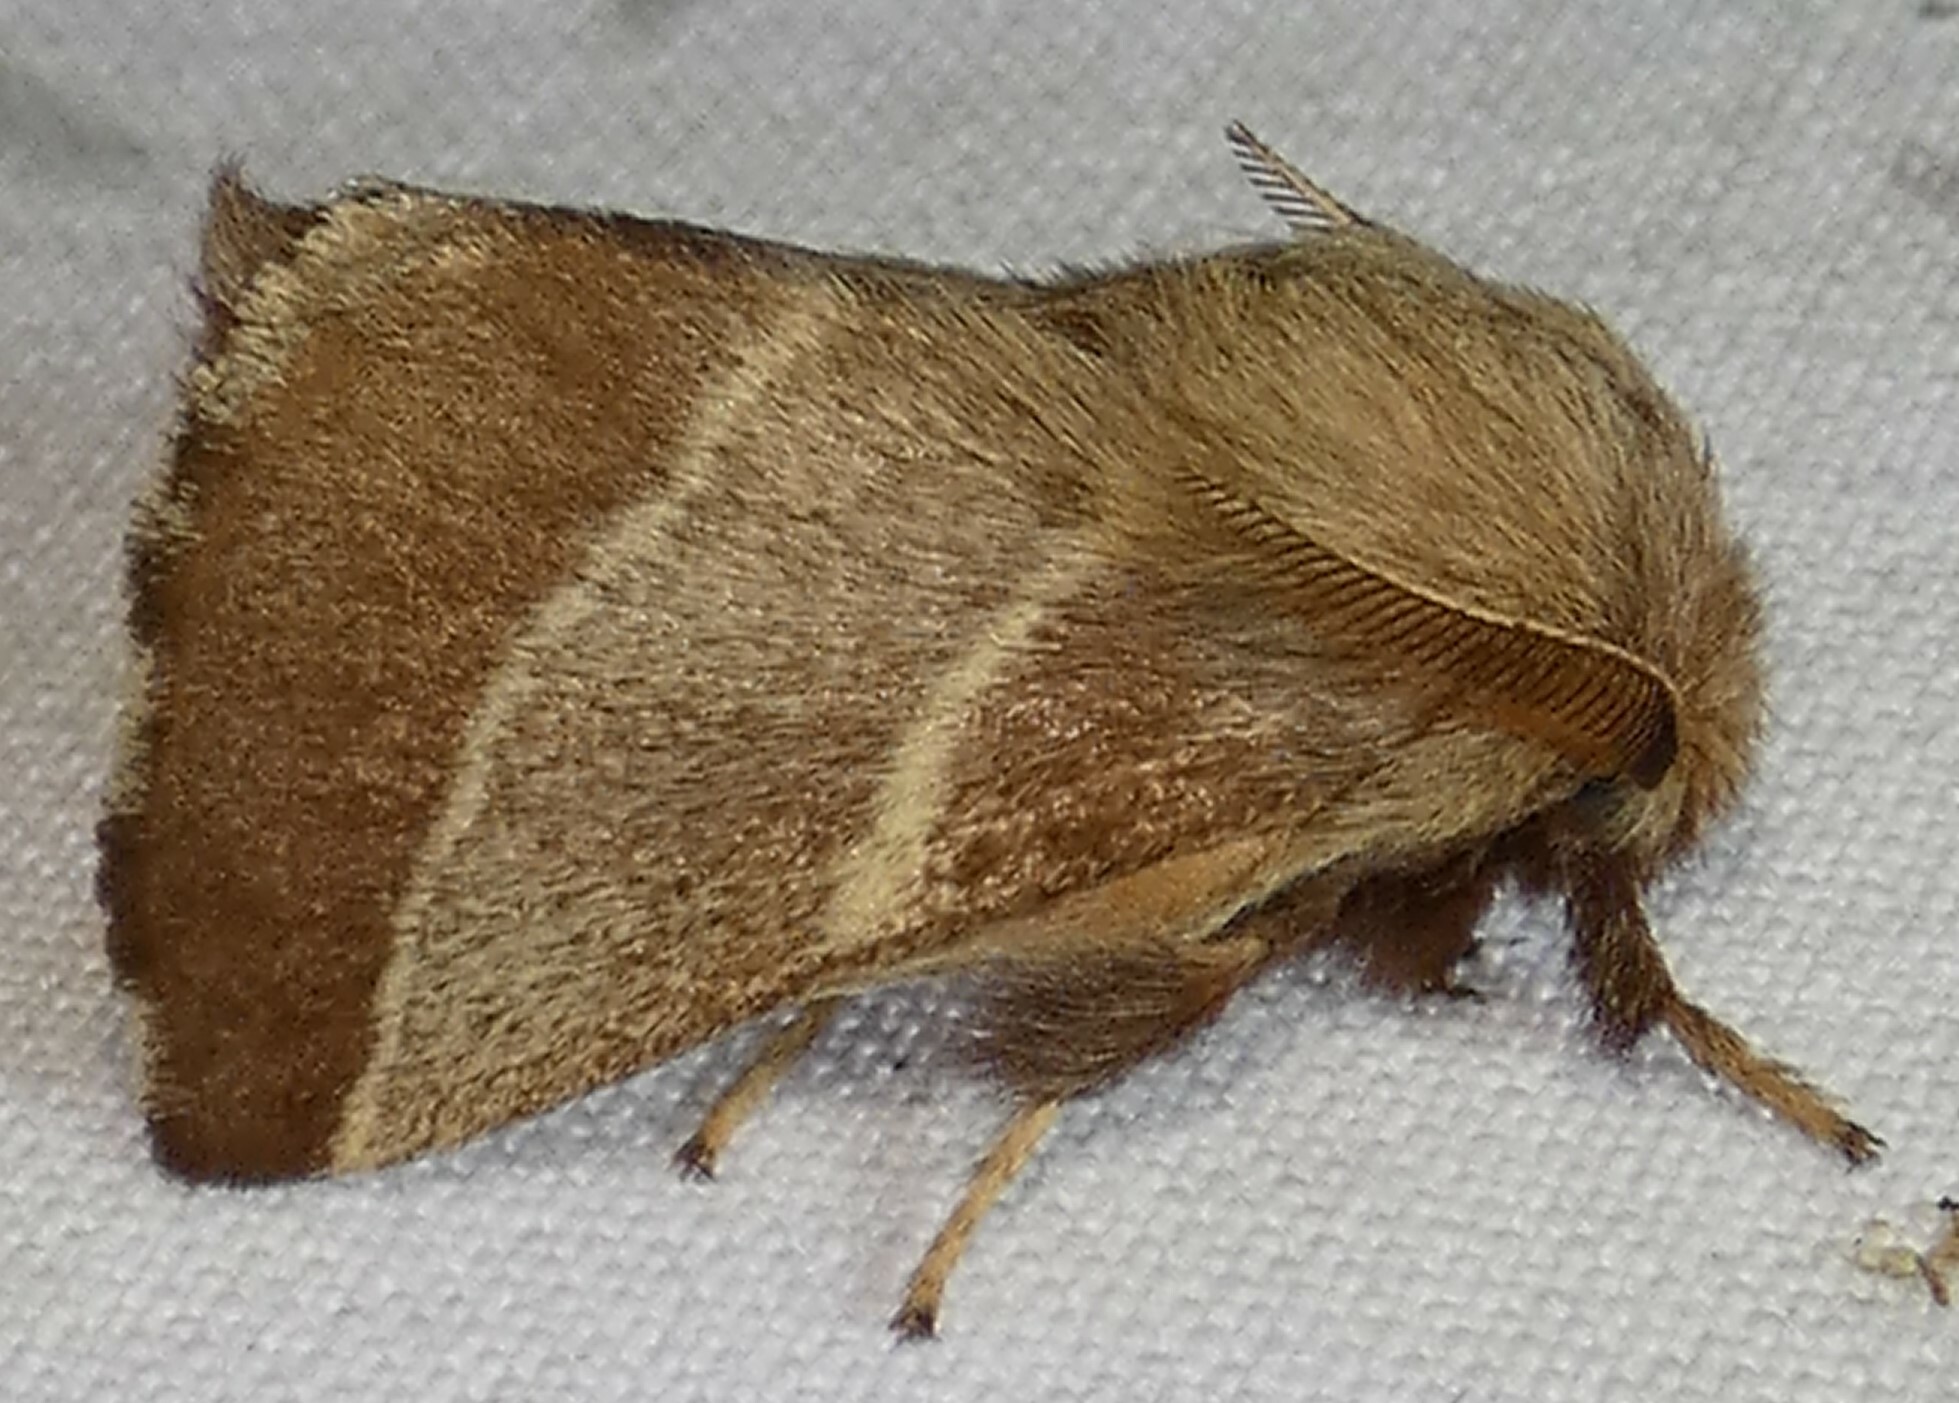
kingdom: Animalia
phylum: Arthropoda
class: Insecta
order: Lepidoptera
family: Lasiocampidae
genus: Malacosoma
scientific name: Malacosoma americana
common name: Eastern tent caterpillar moth
